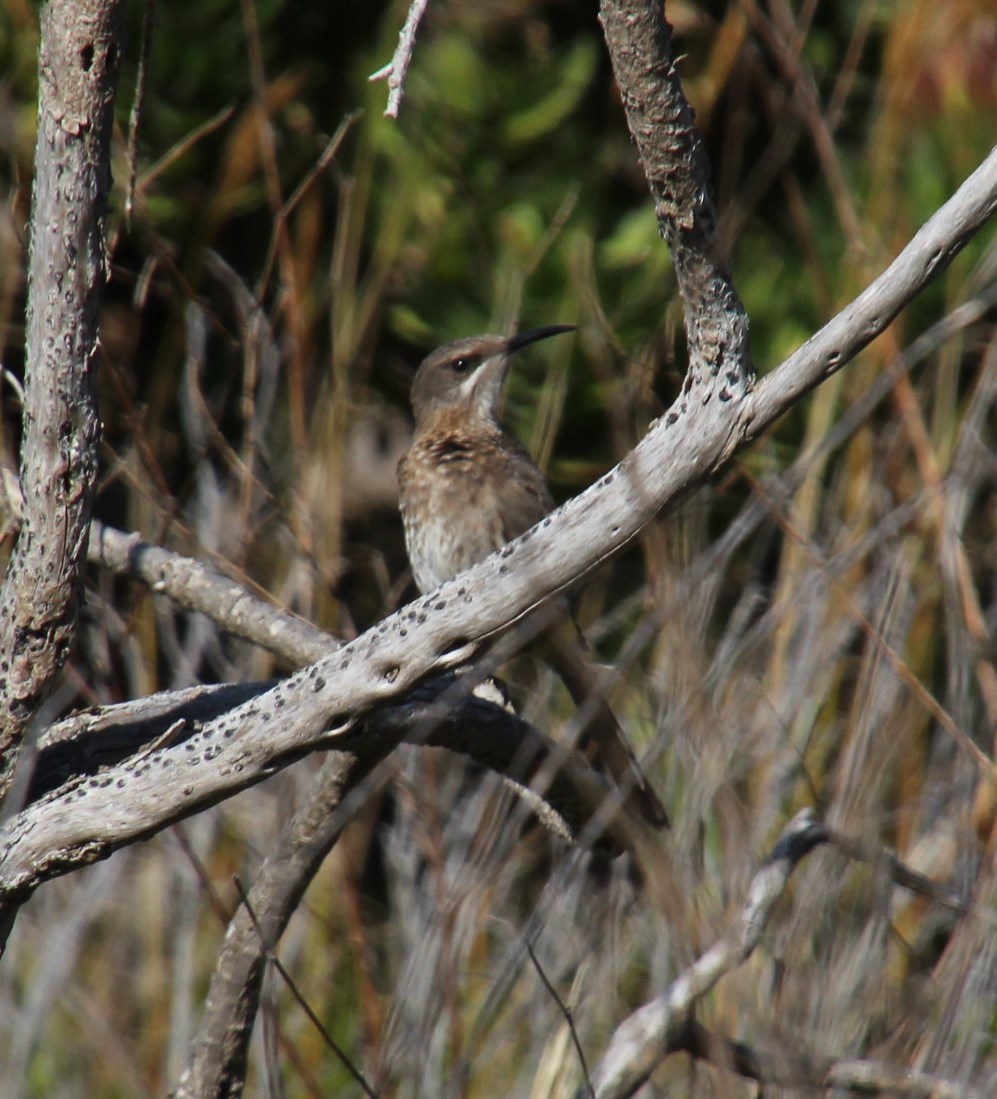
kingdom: Animalia
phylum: Chordata
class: Aves
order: Passeriformes
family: Promeropidae
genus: Promerops
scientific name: Promerops cafer
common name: Cape sugarbird
